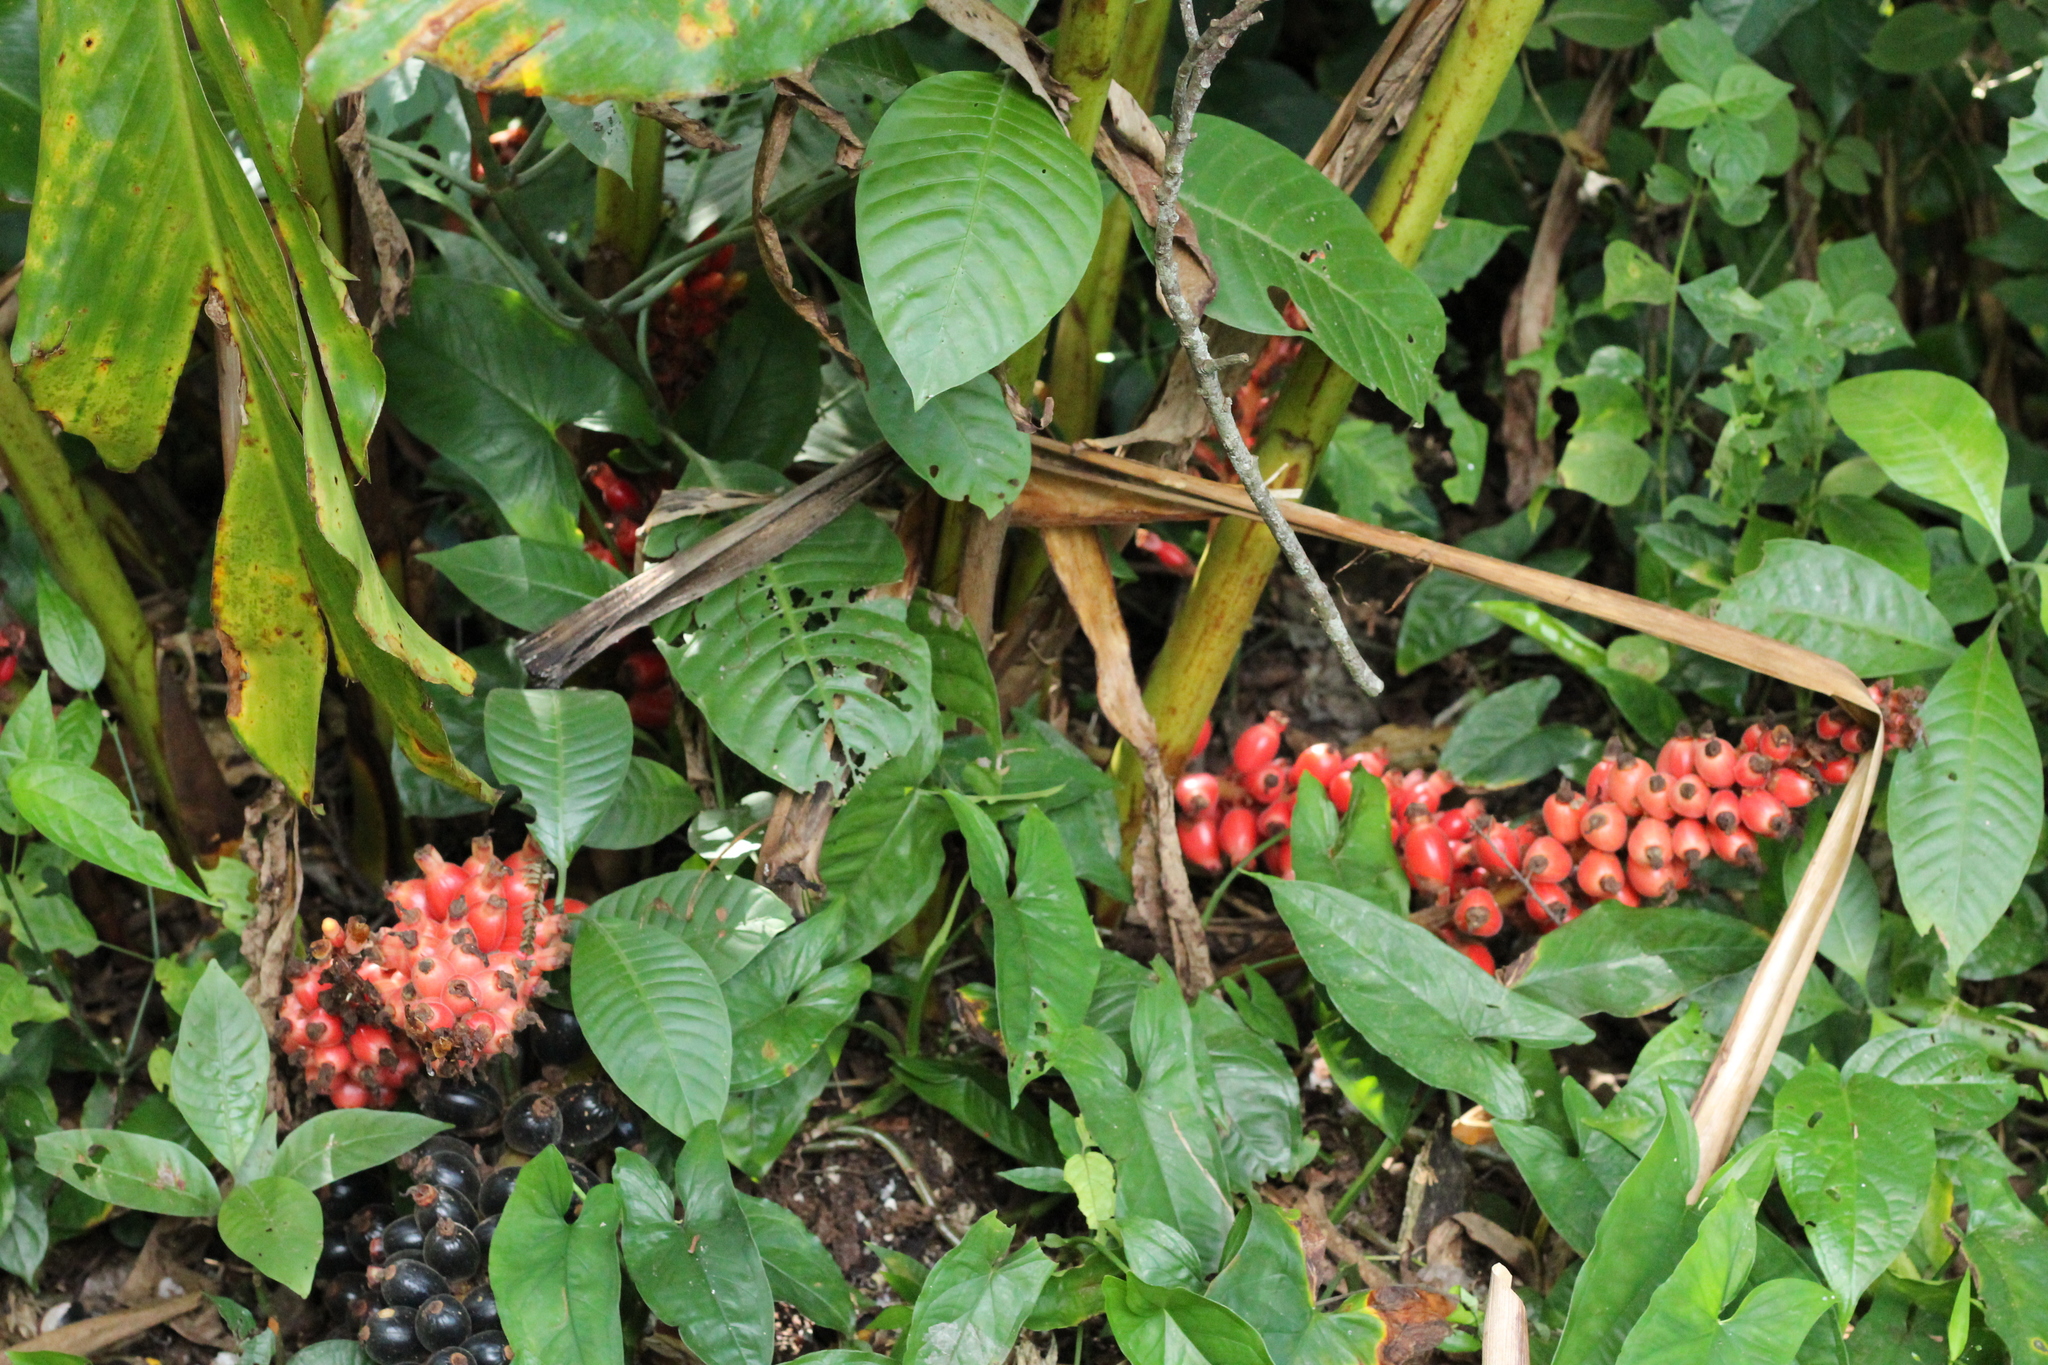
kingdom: Plantae
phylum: Tracheophyta
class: Liliopsida
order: Zingiberales
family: Zingiberaceae
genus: Renealmia
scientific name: Renealmia mexicana
